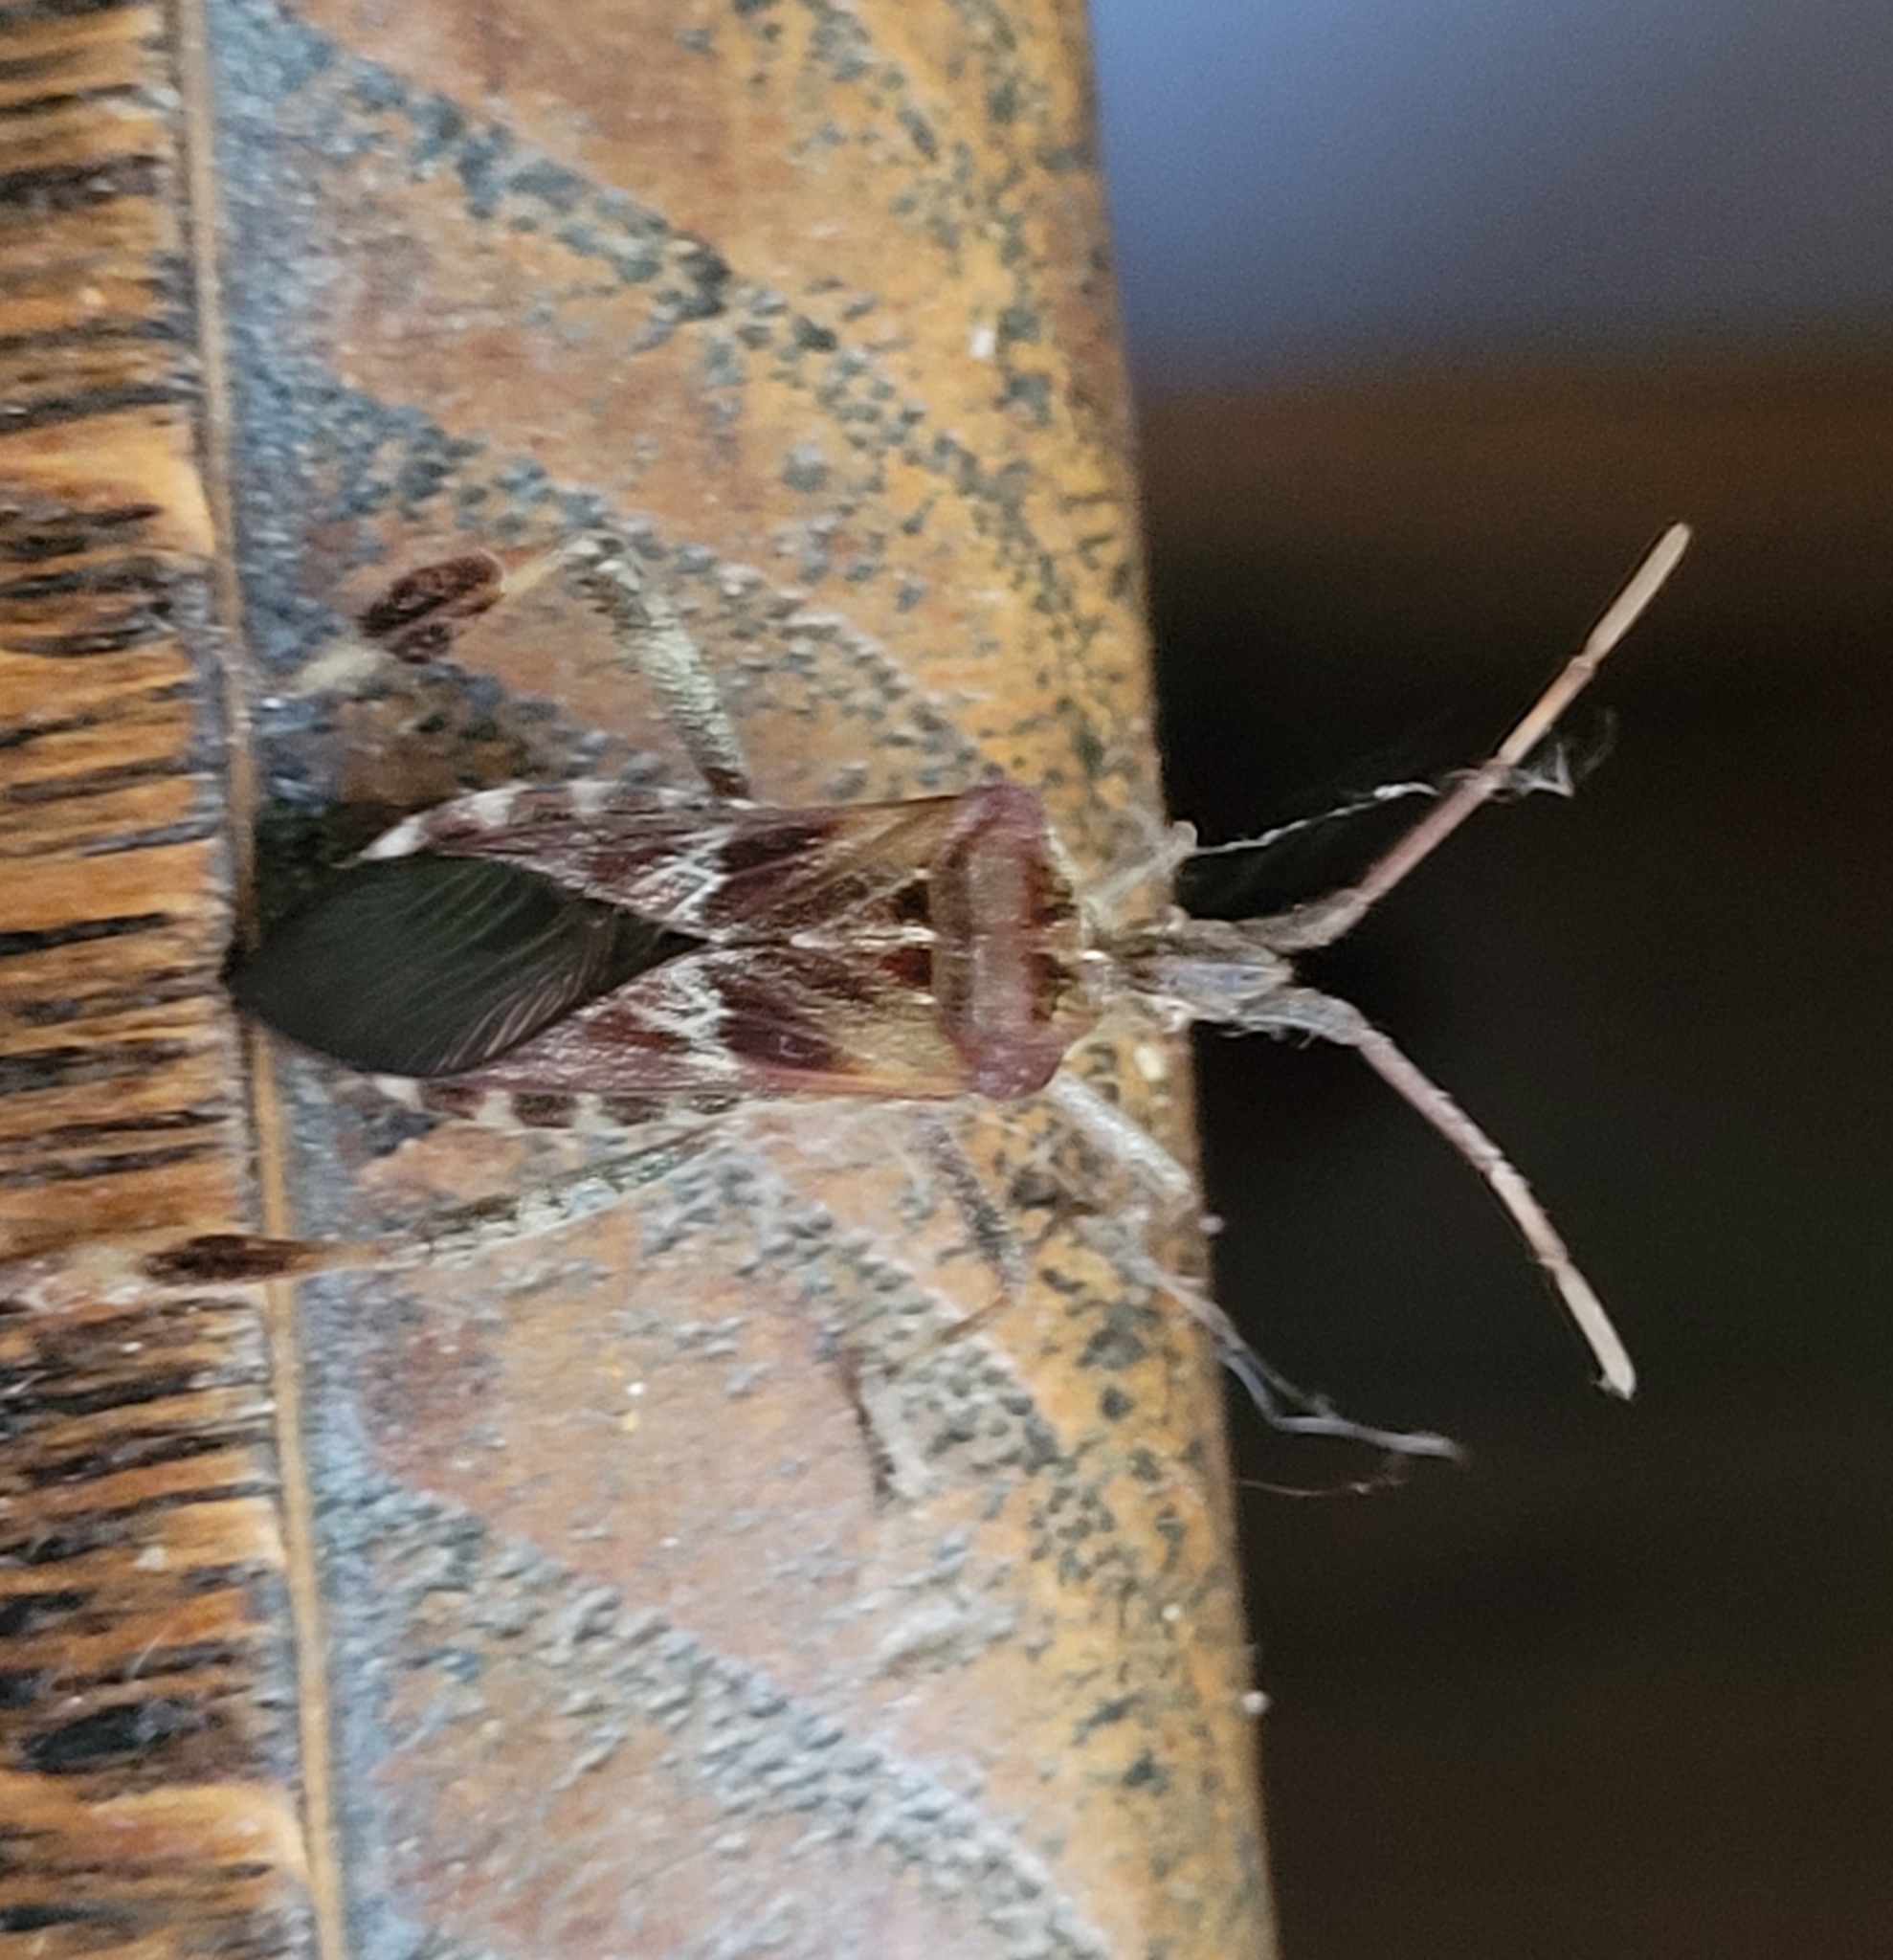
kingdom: Animalia
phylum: Arthropoda
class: Insecta
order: Hemiptera
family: Coreidae
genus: Leptoglossus
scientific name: Leptoglossus occidentalis
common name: Western conifer-seed bug
